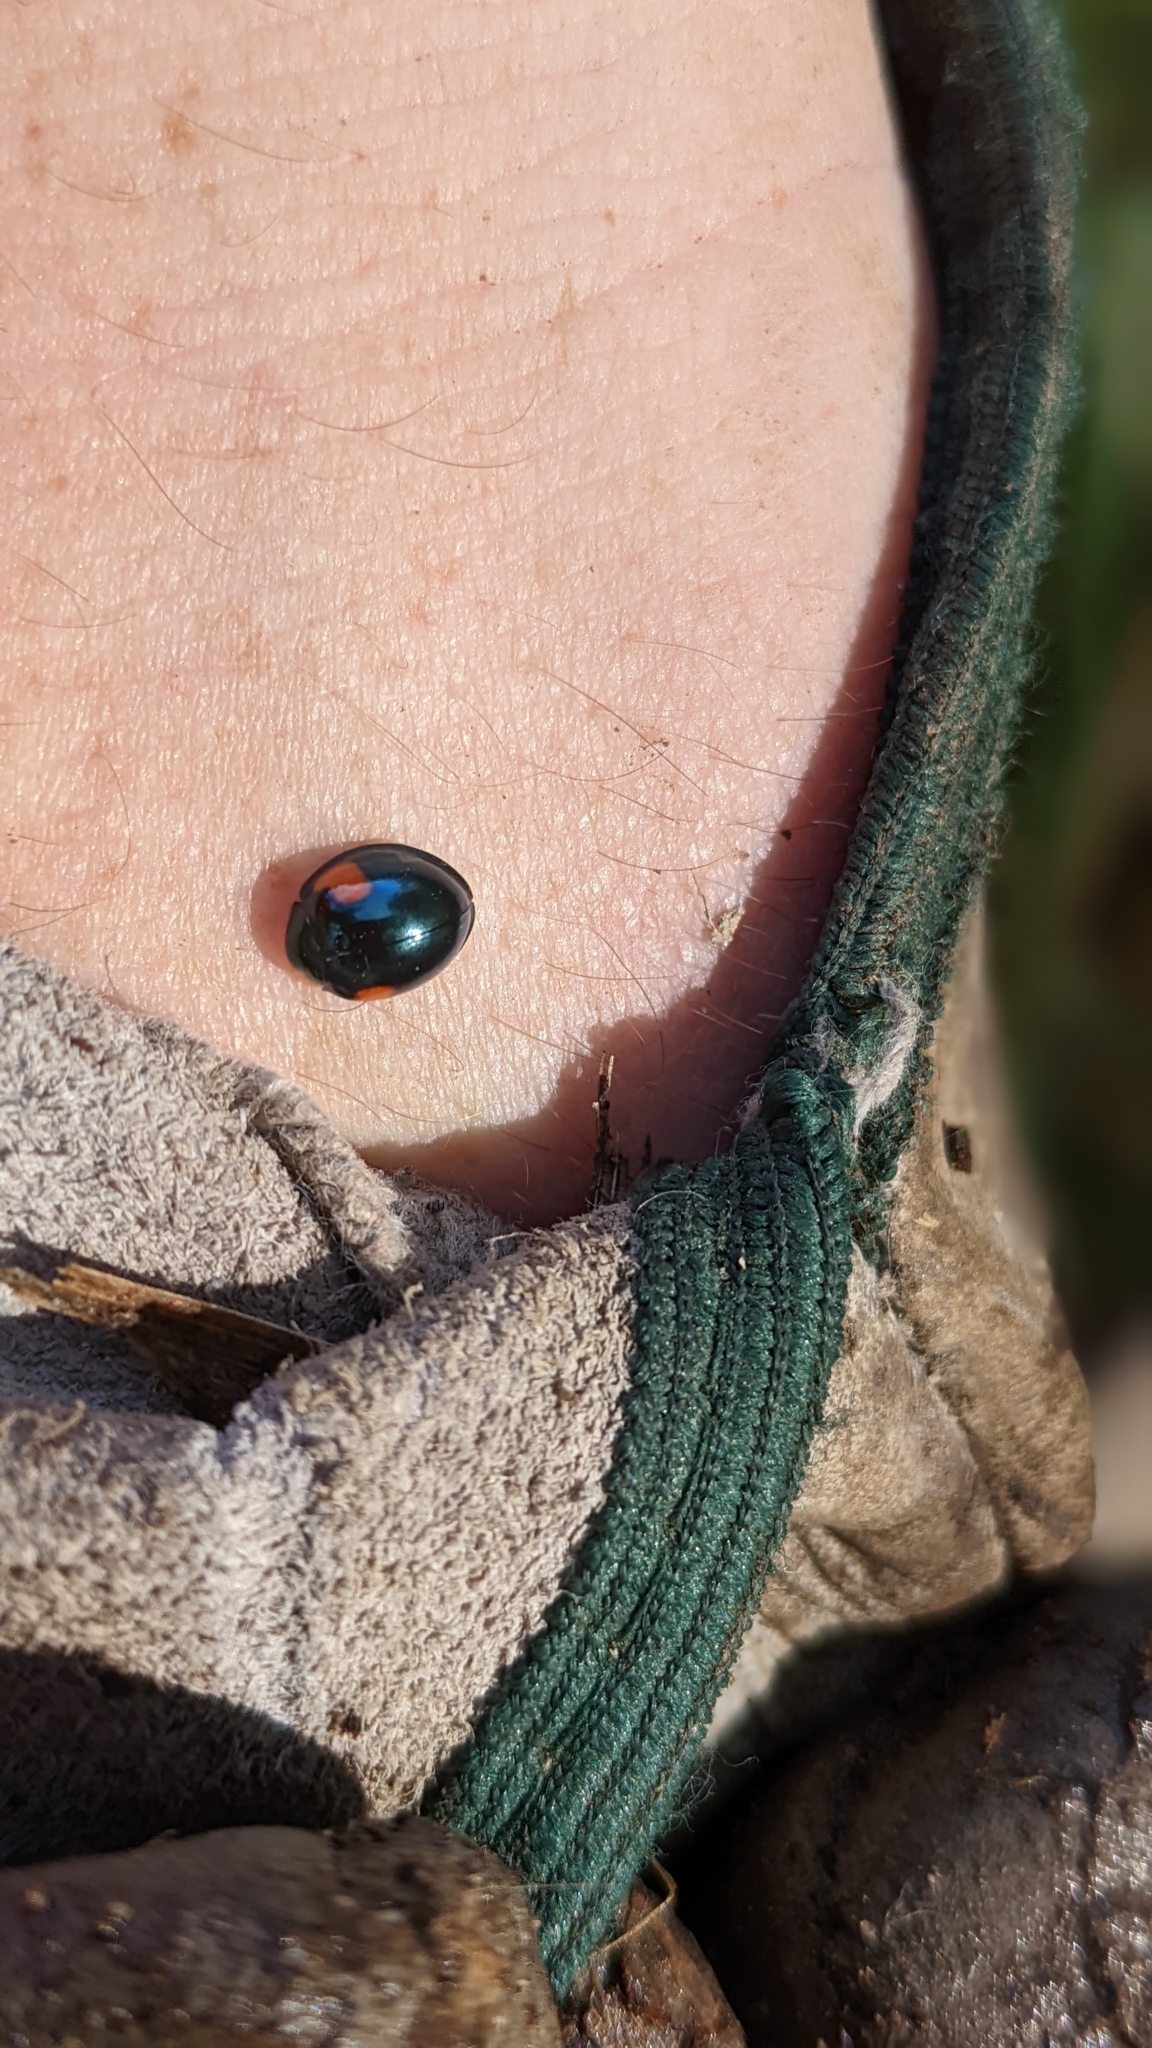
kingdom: Animalia
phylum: Arthropoda
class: Insecta
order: Coleoptera
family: Coccinellidae
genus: Orcus
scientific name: Orcus
